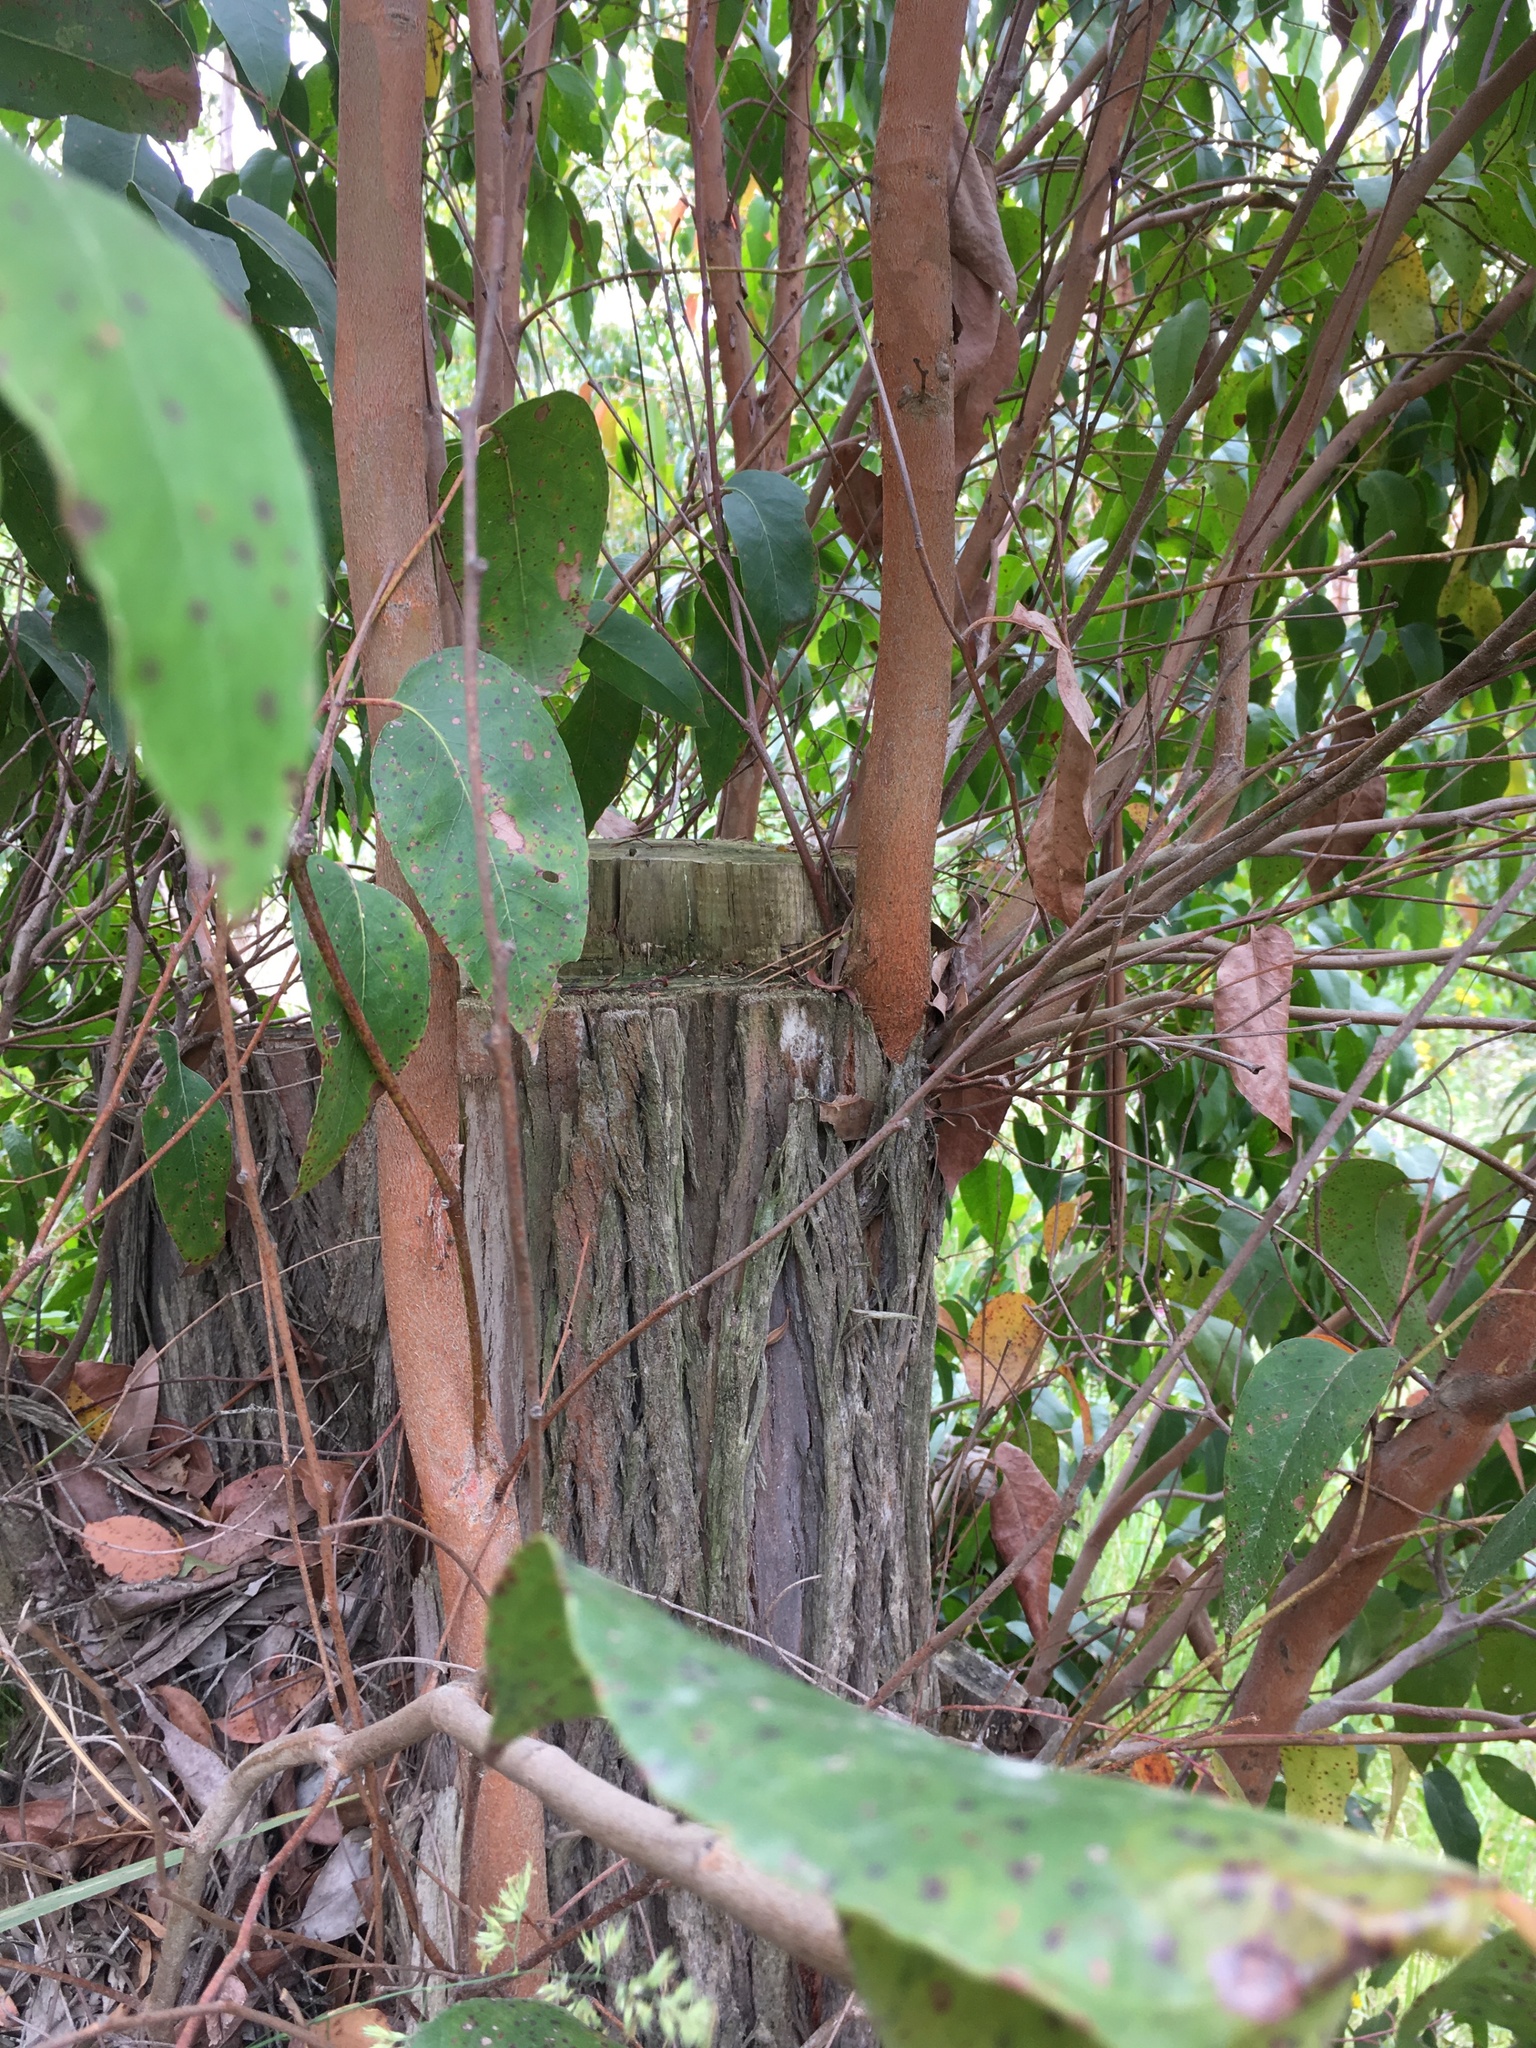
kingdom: Plantae
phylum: Tracheophyta
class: Magnoliopsida
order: Myrtales
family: Myrtaceae
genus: Eucalyptus
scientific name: Eucalyptus obliqua
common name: Messmate stringybark
